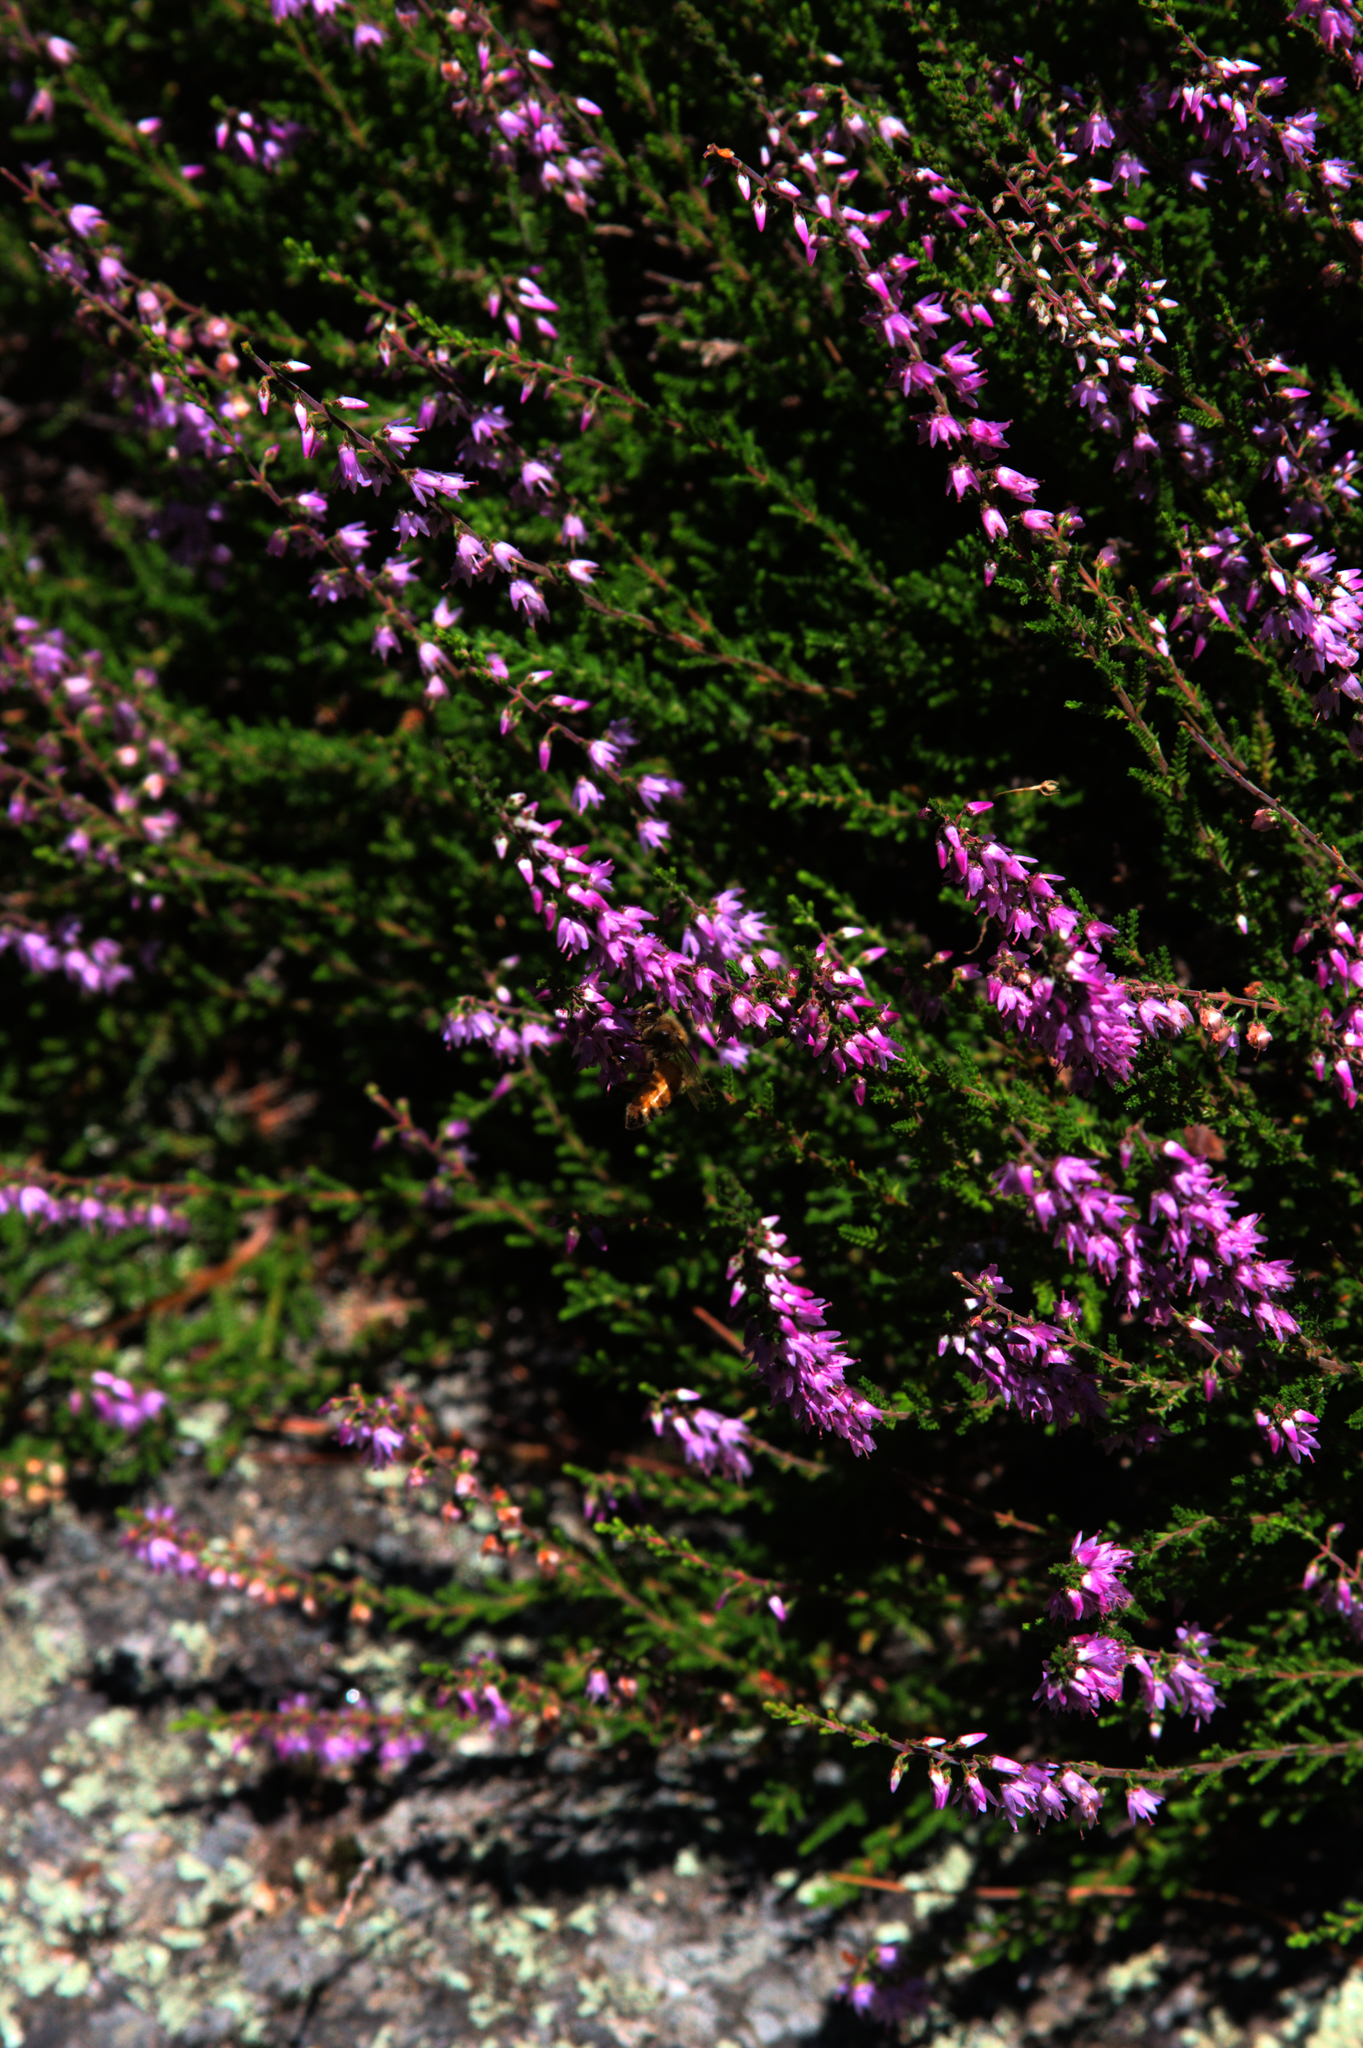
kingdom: Plantae
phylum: Tracheophyta
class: Magnoliopsida
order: Ericales
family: Ericaceae
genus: Calluna
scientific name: Calluna vulgaris
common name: Heather
